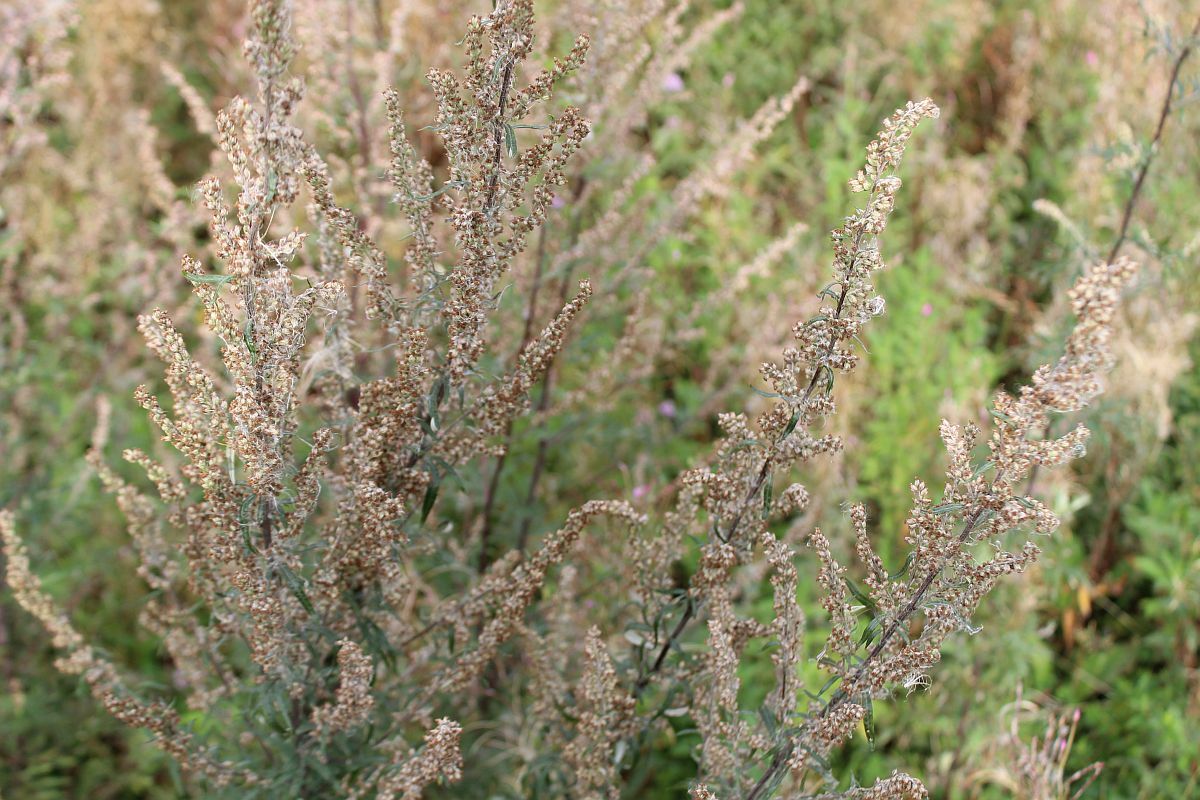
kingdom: Plantae
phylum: Tracheophyta
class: Magnoliopsida
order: Asterales
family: Asteraceae
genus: Artemisia
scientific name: Artemisia vulgaris
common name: Mugwort
